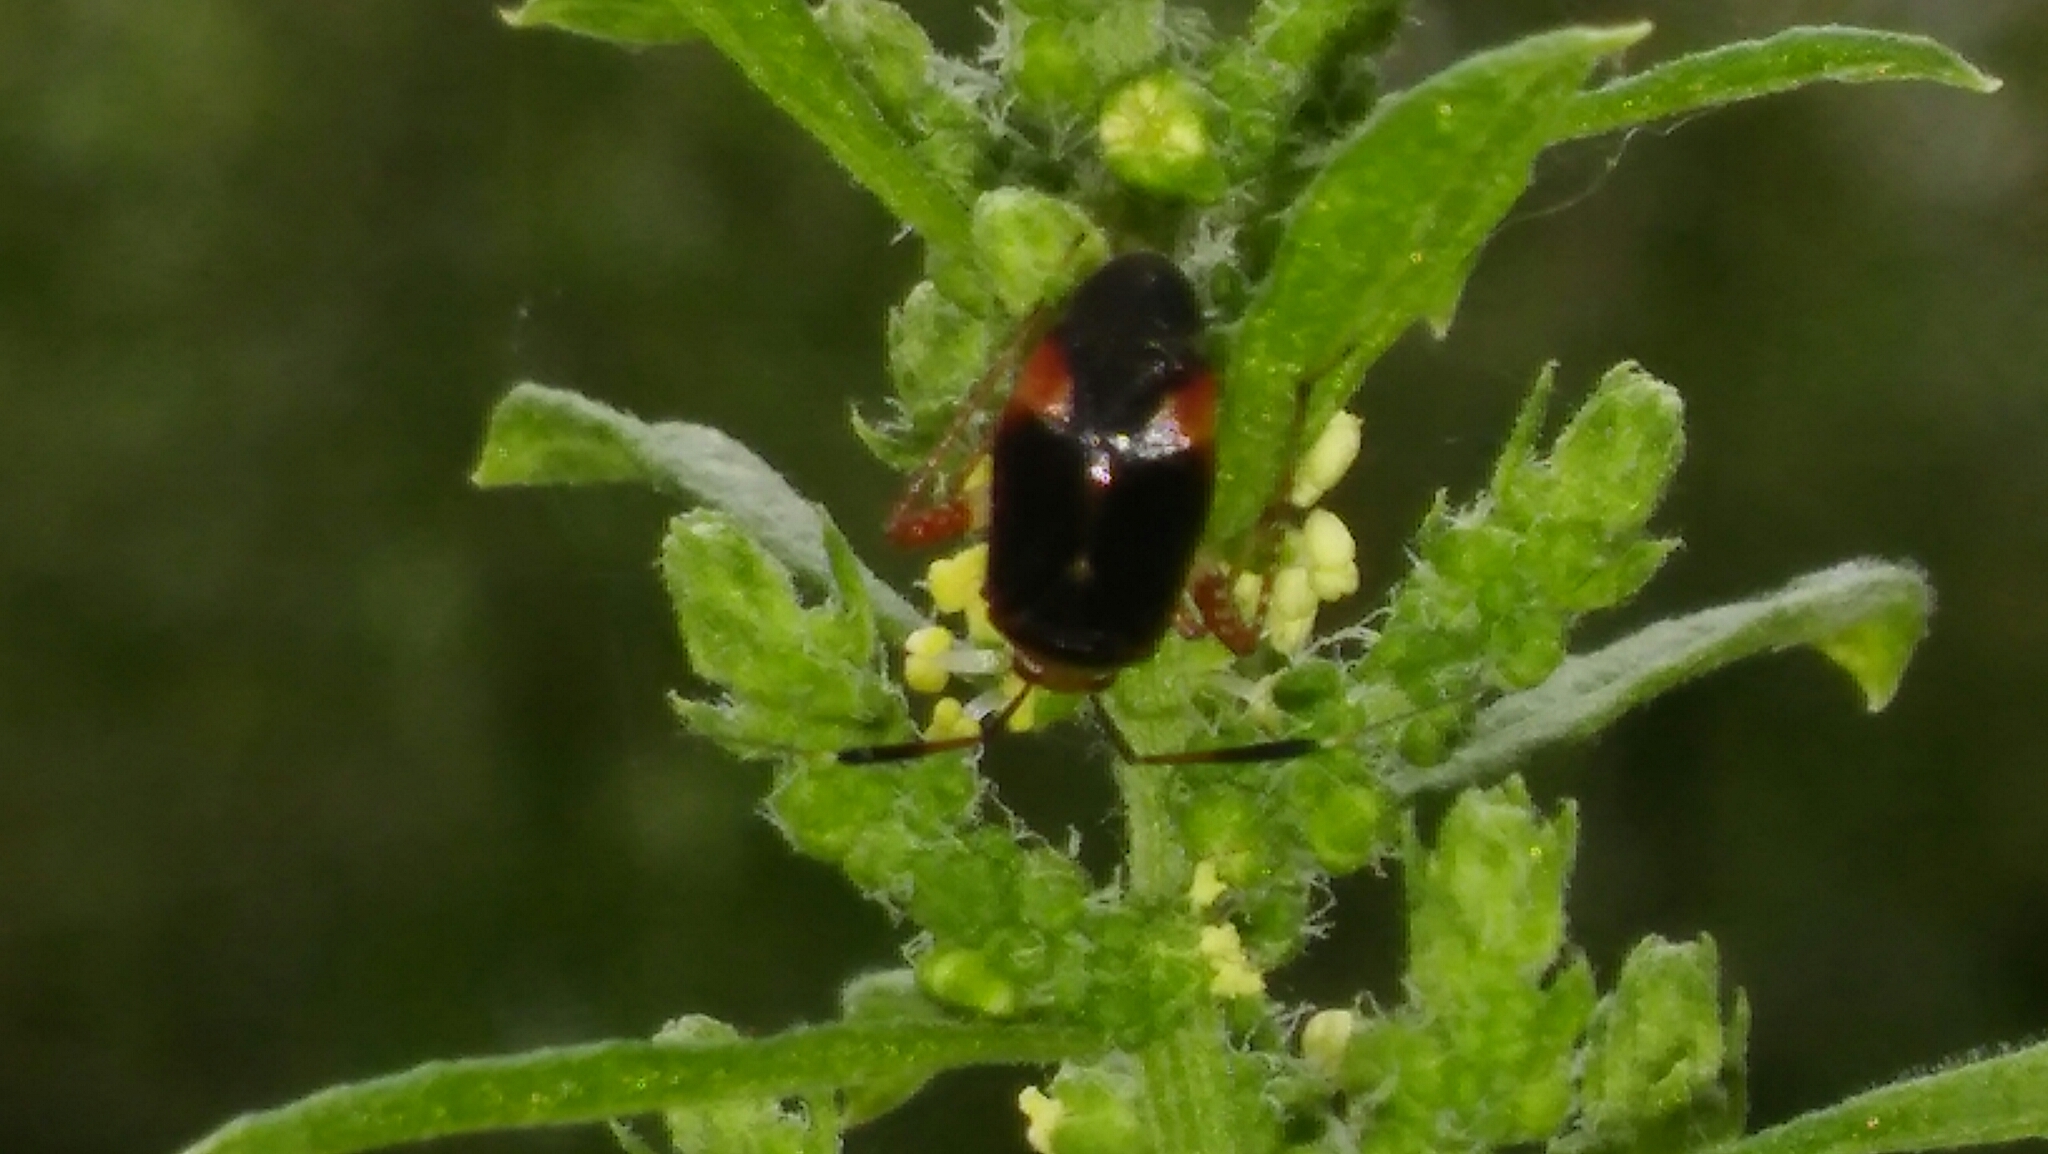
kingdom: Animalia
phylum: Arthropoda
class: Insecta
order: Hemiptera
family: Miridae
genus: Horciasinus
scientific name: Horciasinus argentinus
